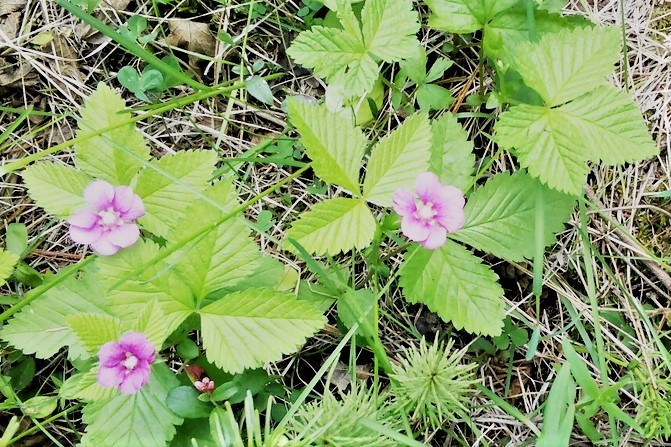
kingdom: Plantae
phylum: Tracheophyta
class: Magnoliopsida
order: Rosales
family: Rosaceae
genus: Rubus
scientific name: Rubus arcticus
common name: Arctic bramble
